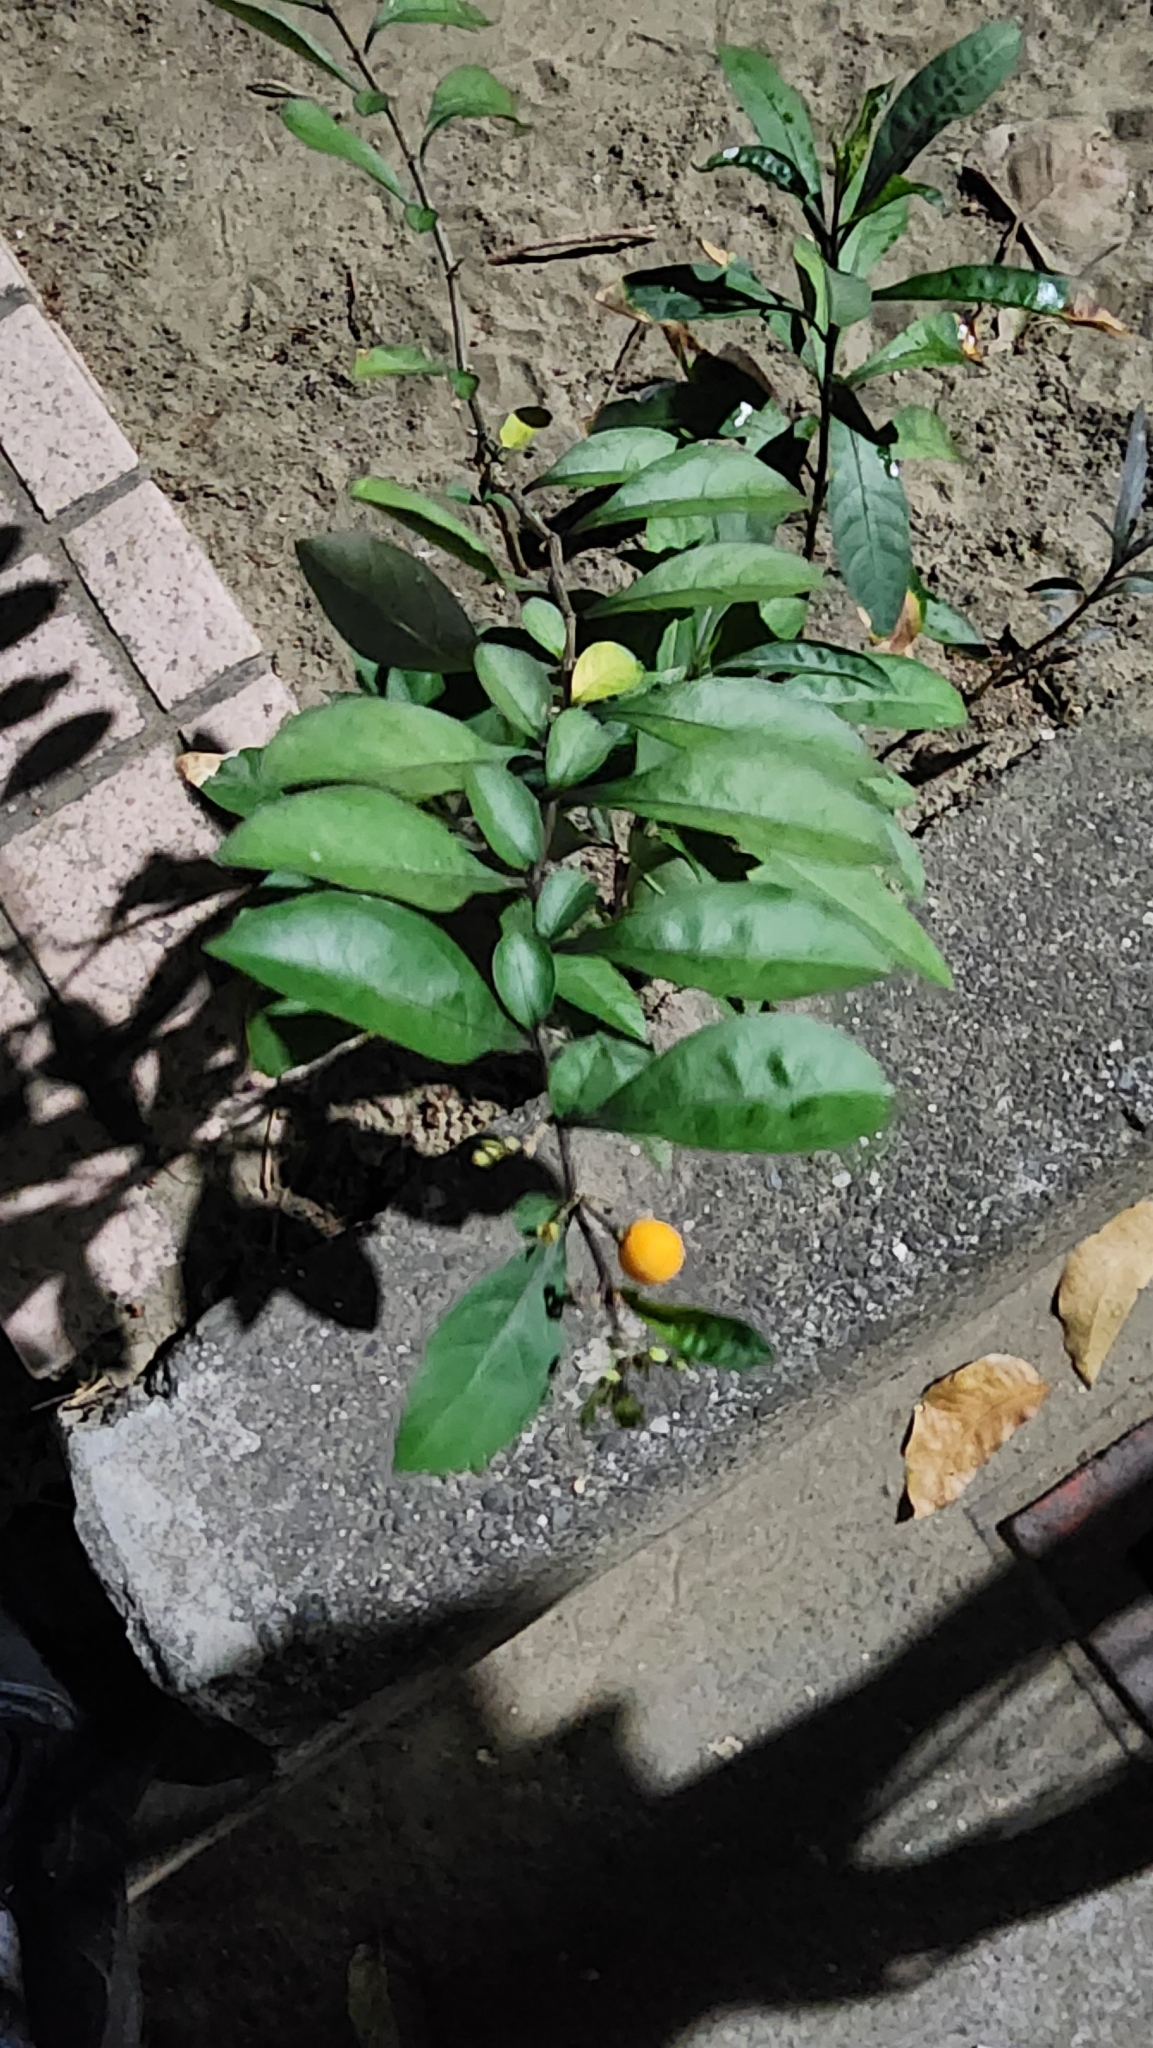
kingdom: Plantae
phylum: Tracheophyta
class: Magnoliopsida
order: Solanales
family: Solanaceae
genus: Solanum
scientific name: Solanum diphyllum
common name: Twoleaf nightshade
